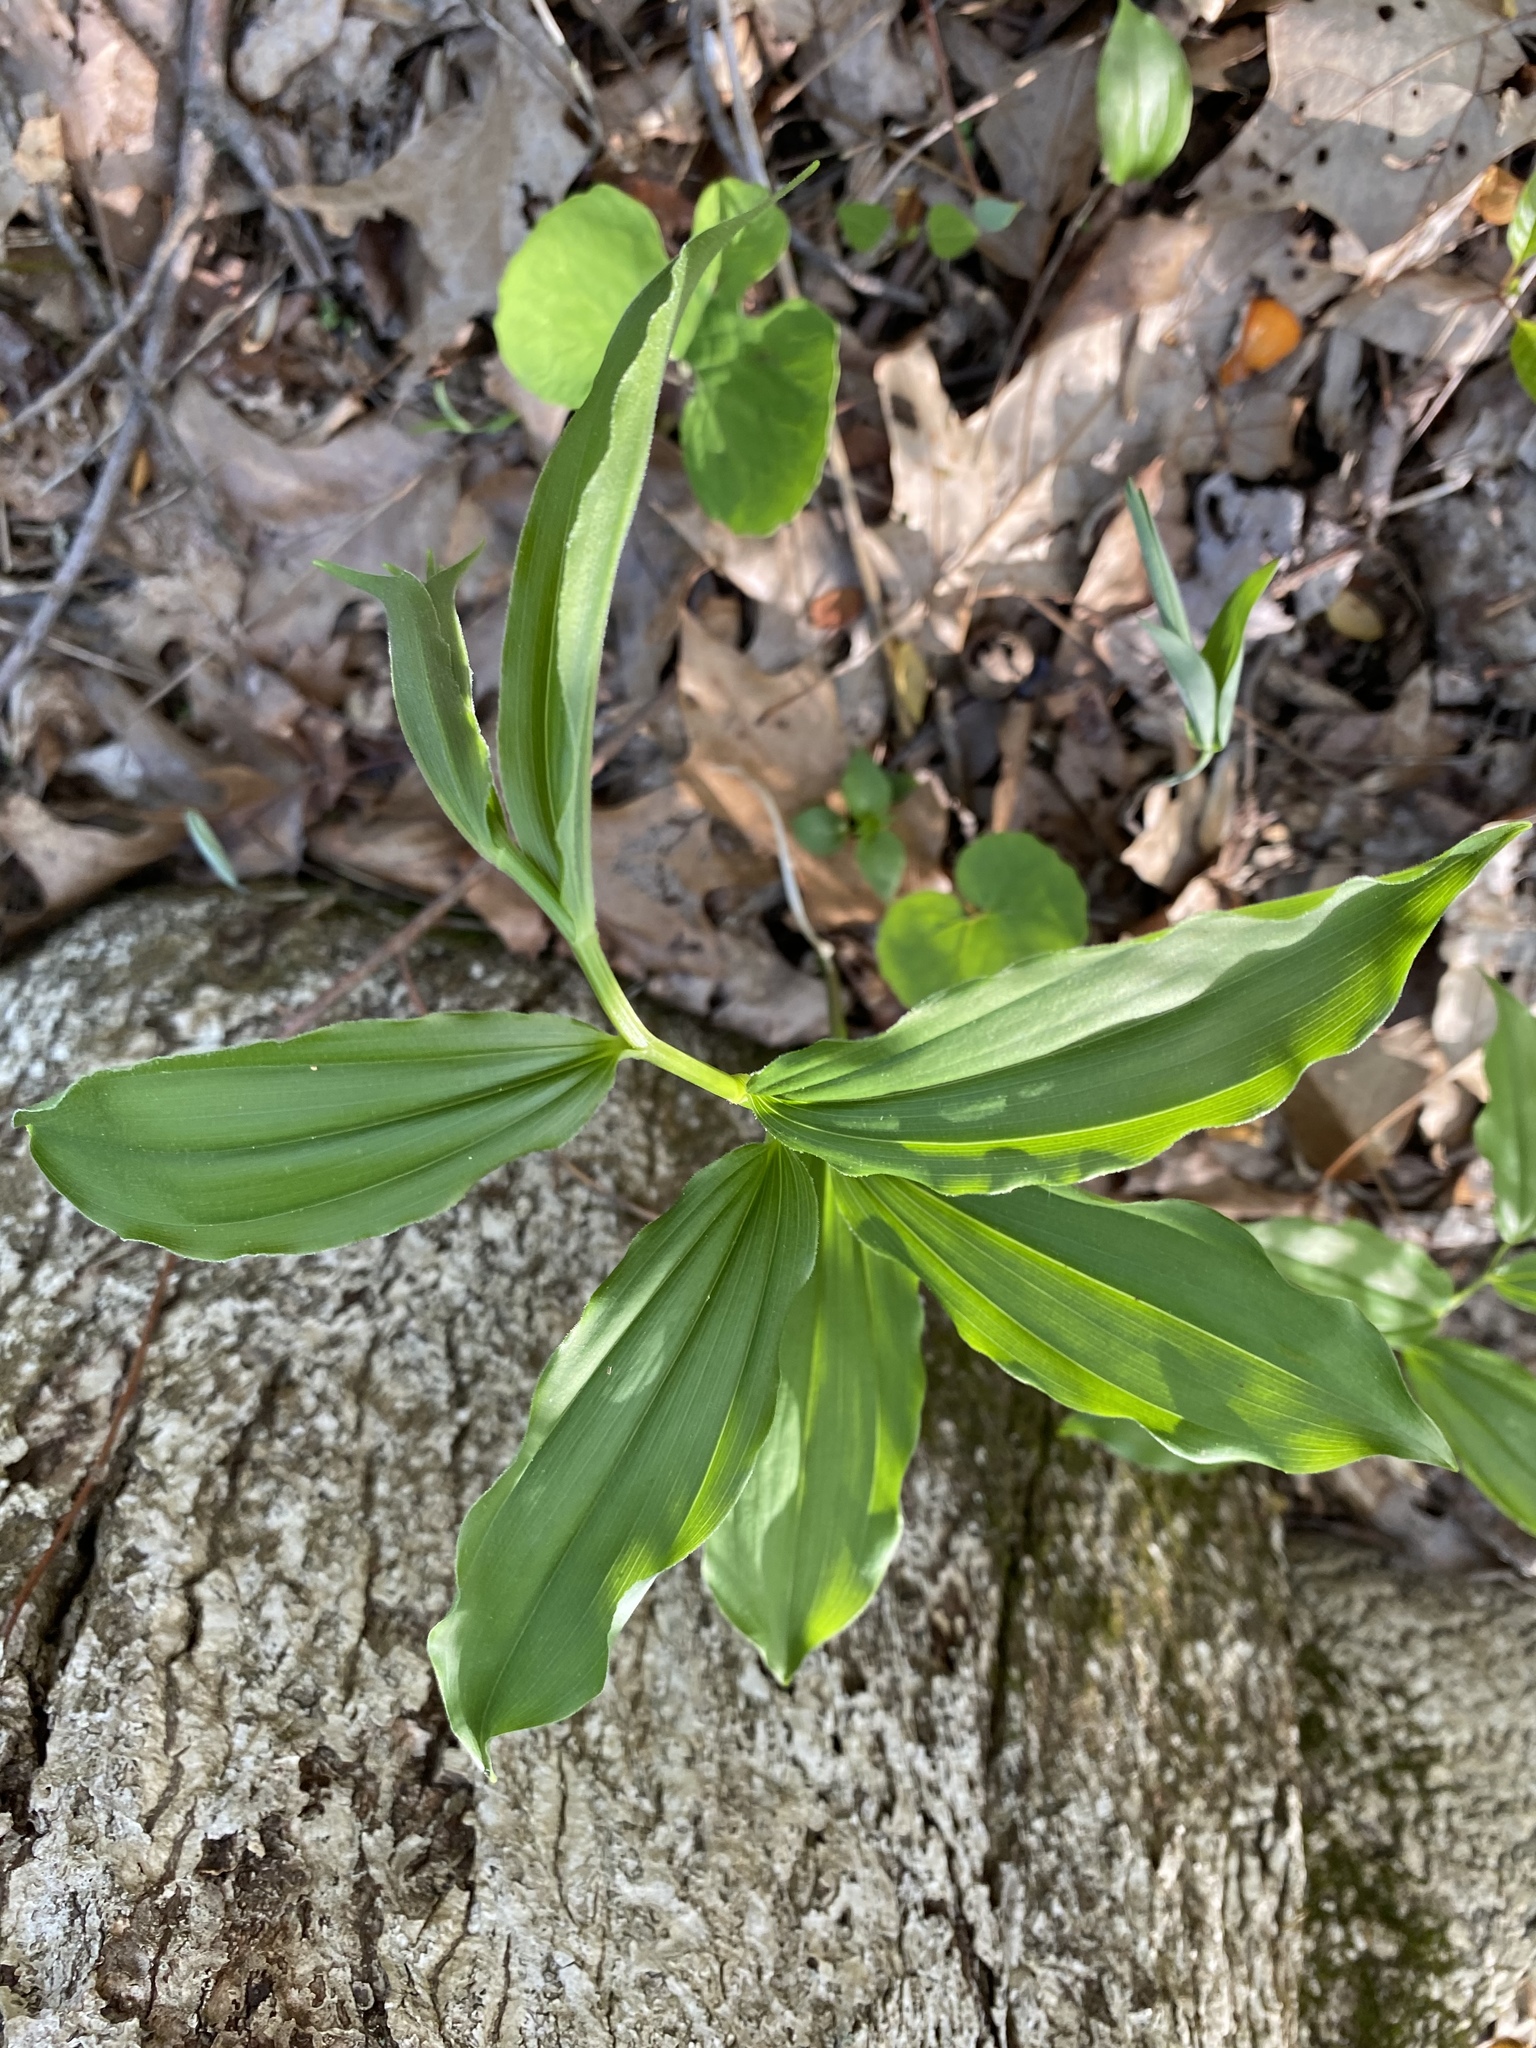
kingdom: Plantae
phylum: Tracheophyta
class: Liliopsida
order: Asparagales
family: Asparagaceae
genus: Maianthemum
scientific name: Maianthemum racemosum
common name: False spikenard
